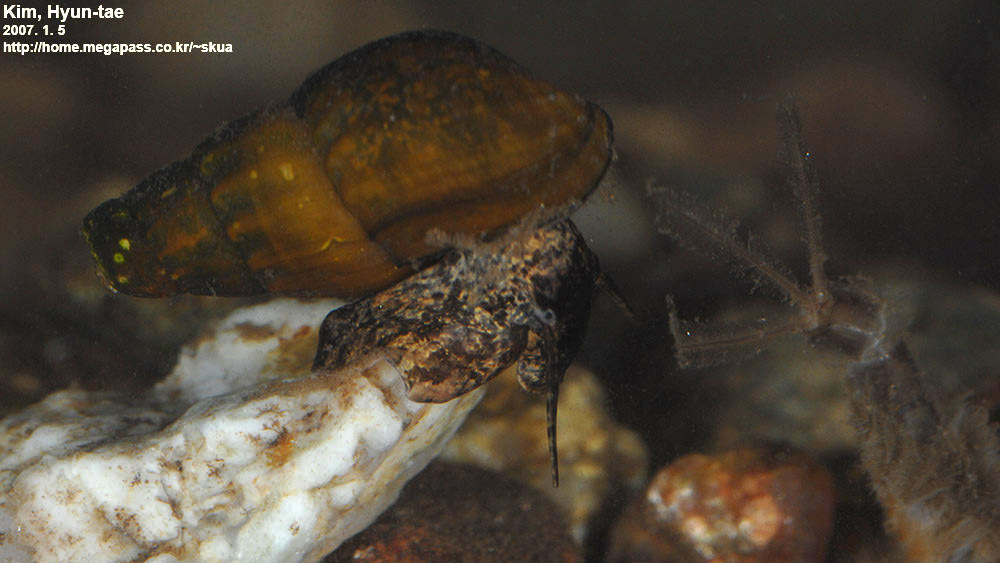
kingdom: Animalia
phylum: Mollusca
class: Gastropoda
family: Semisulcospiridae
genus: Semisulcospira
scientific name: Semisulcospira forticosta
